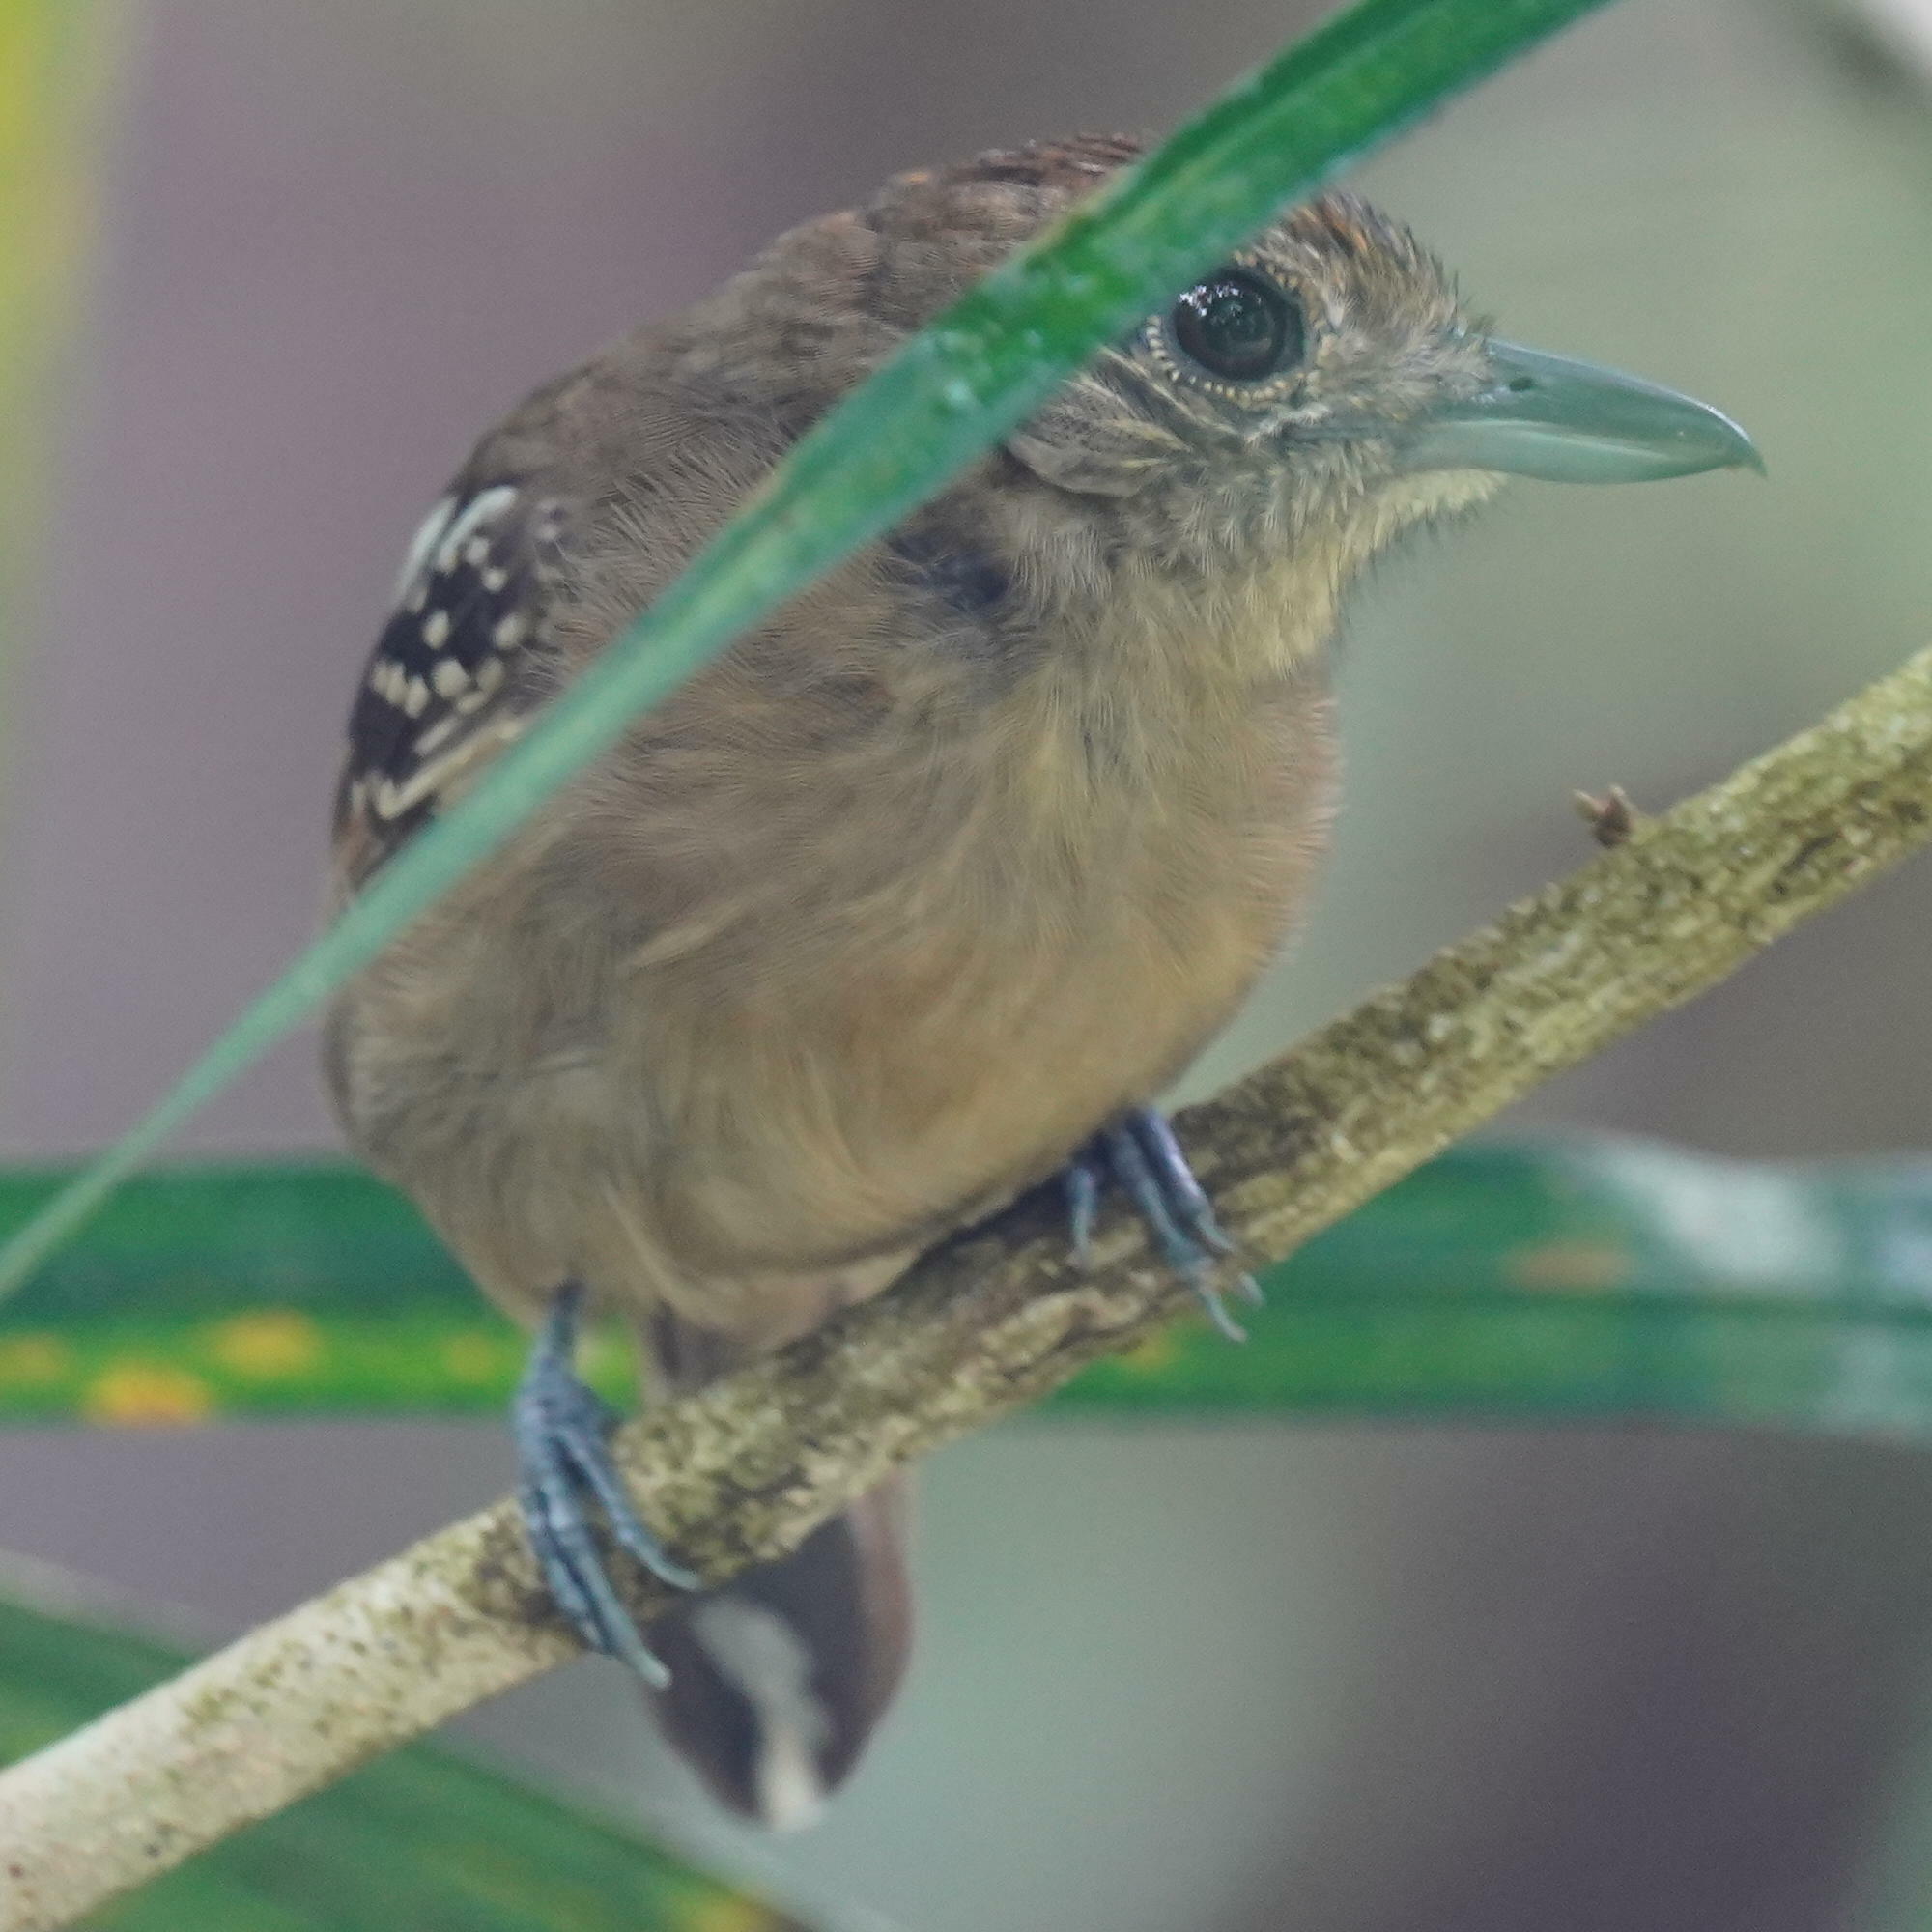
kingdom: Animalia
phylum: Chordata
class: Aves
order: Passeriformes
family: Thamnophilidae
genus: Thamnophilus
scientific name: Thamnophilus atrinucha
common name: Black-crowned antshrike
